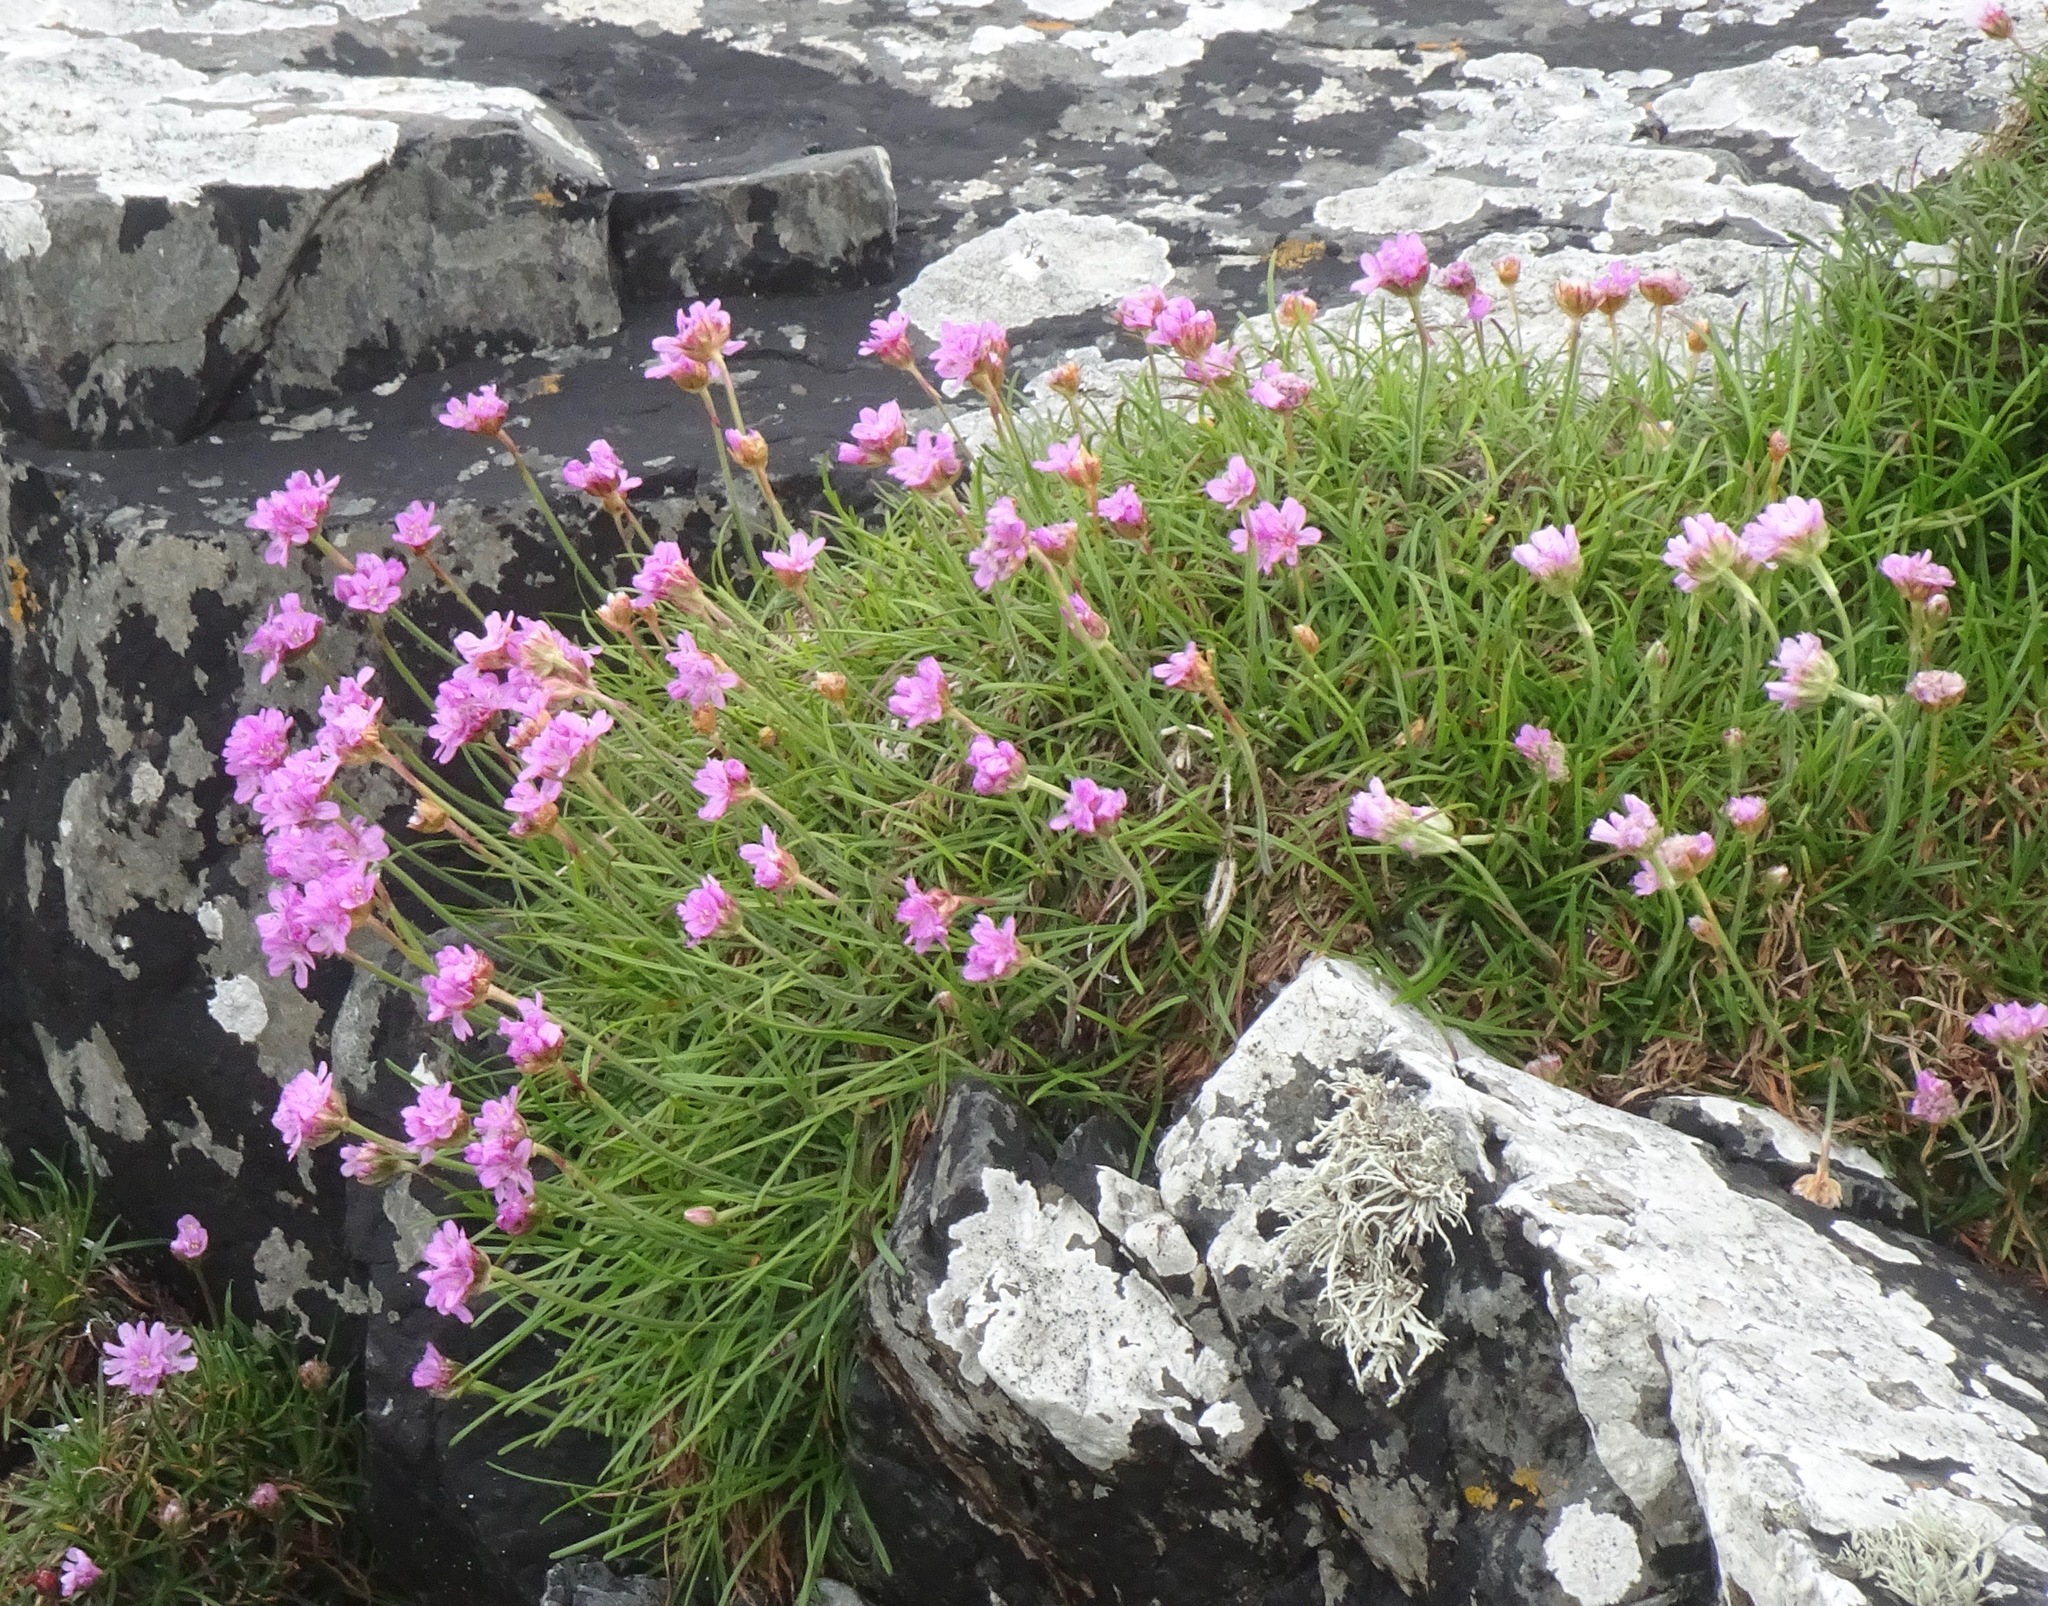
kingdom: Plantae
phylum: Tracheophyta
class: Magnoliopsida
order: Caryophyllales
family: Plumbaginaceae
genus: Armeria
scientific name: Armeria maritima
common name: Thrift
